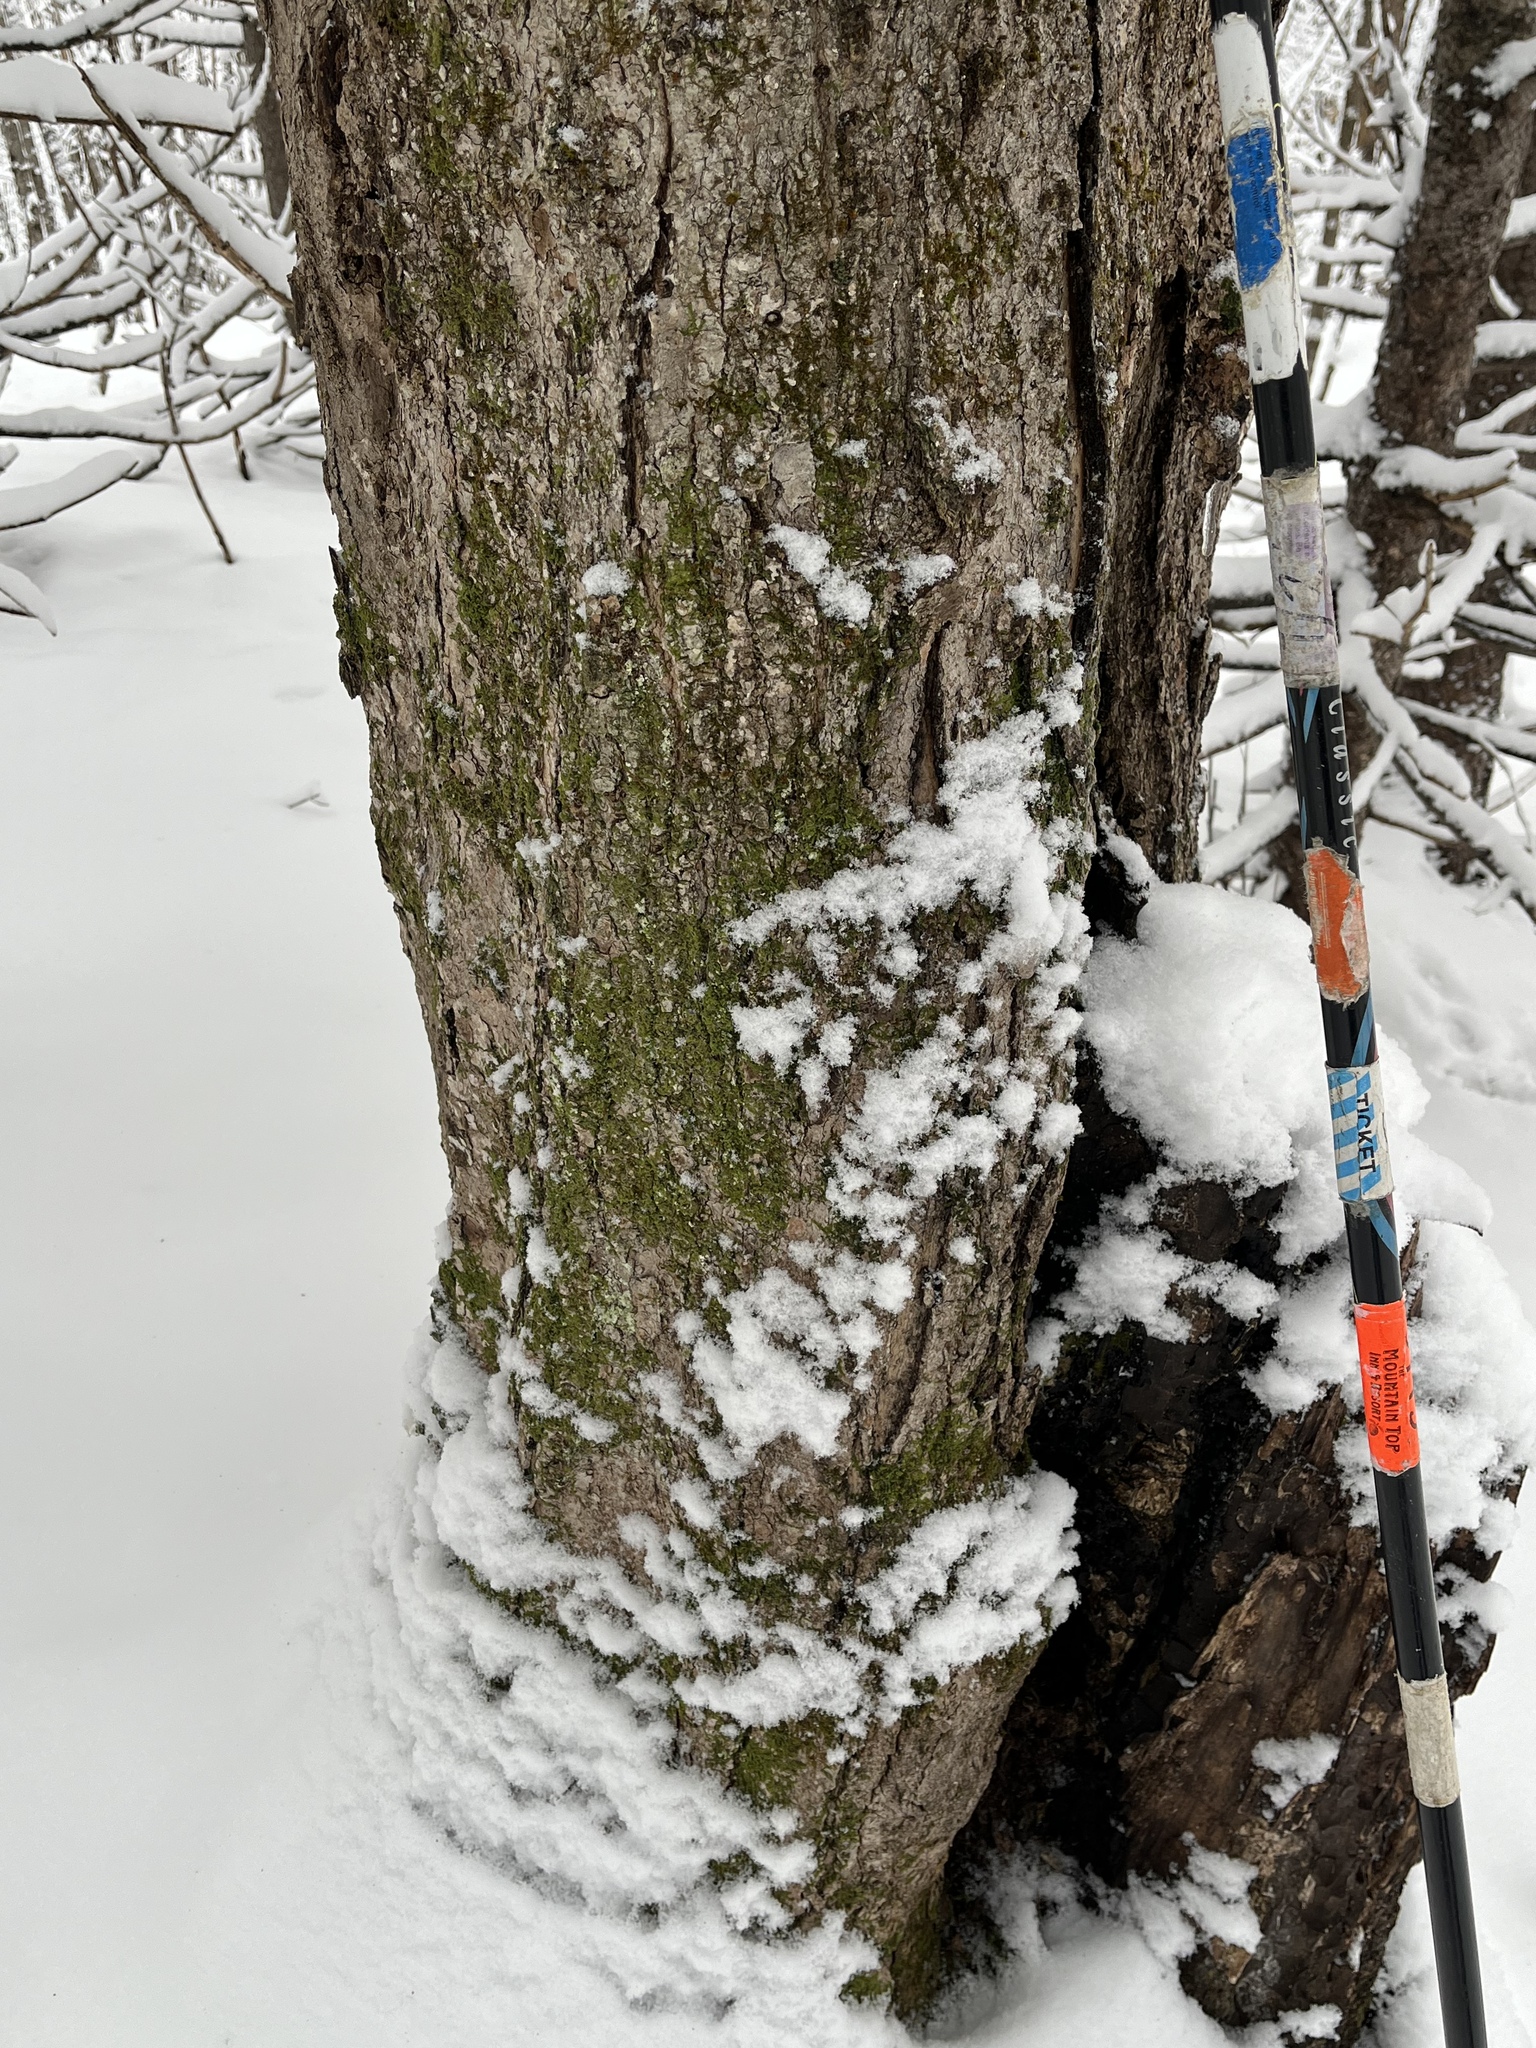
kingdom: Plantae
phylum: Marchantiophyta
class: Jungermanniopsida
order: Porellales
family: Radulaceae
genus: Radula
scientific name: Radula complanata
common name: Flat-leaved scalewort
